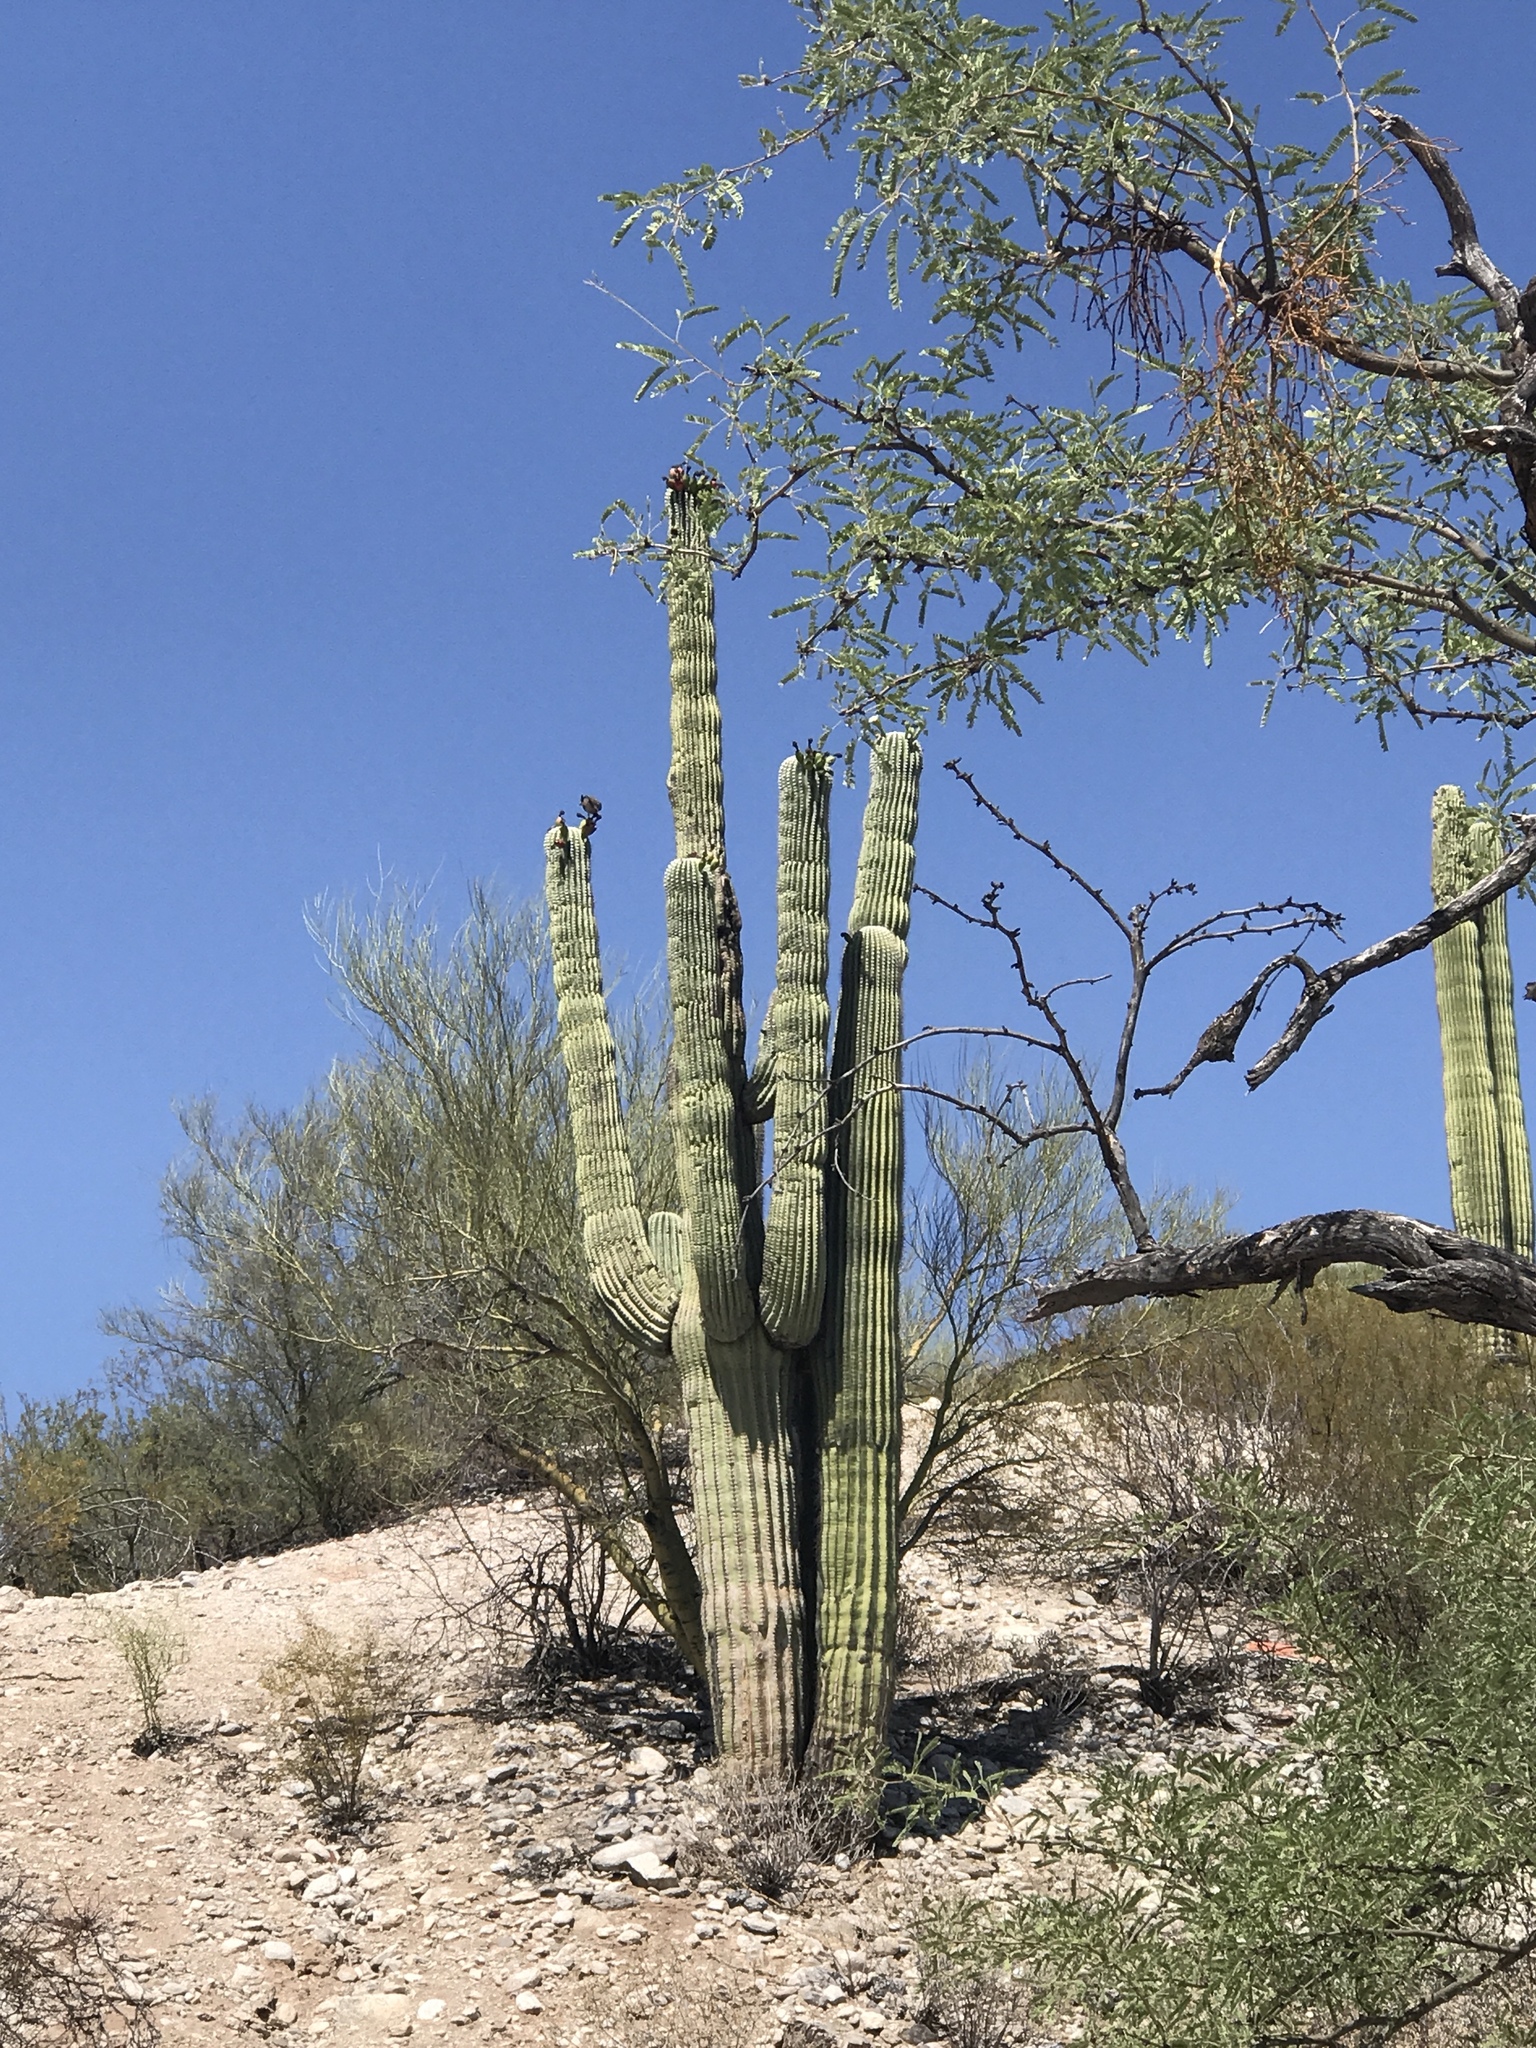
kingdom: Plantae
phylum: Tracheophyta
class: Magnoliopsida
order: Caryophyllales
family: Cactaceae
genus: Carnegiea
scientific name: Carnegiea gigantea
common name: Saguaro
